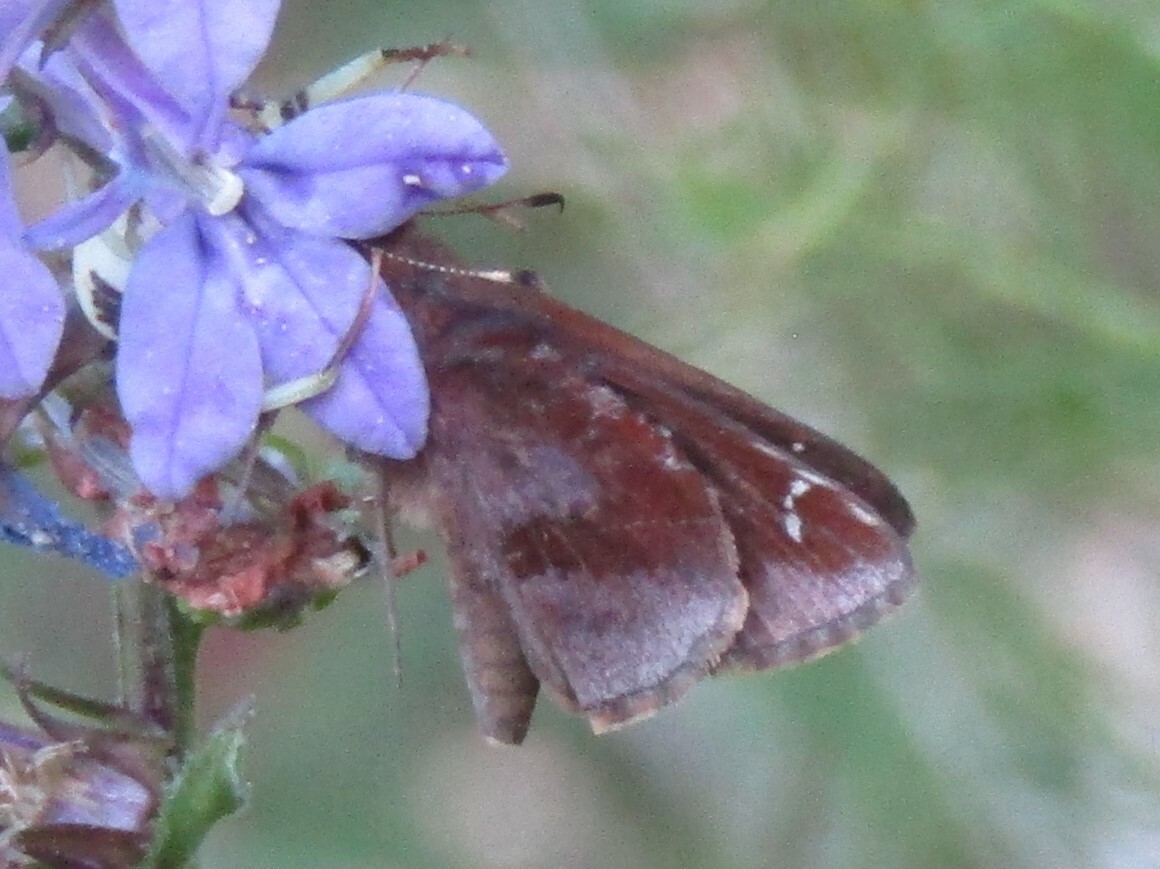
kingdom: Animalia
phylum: Arthropoda
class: Insecta
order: Lepidoptera
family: Hesperiidae
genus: Lerema
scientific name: Lerema accius
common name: Clouded skipper
